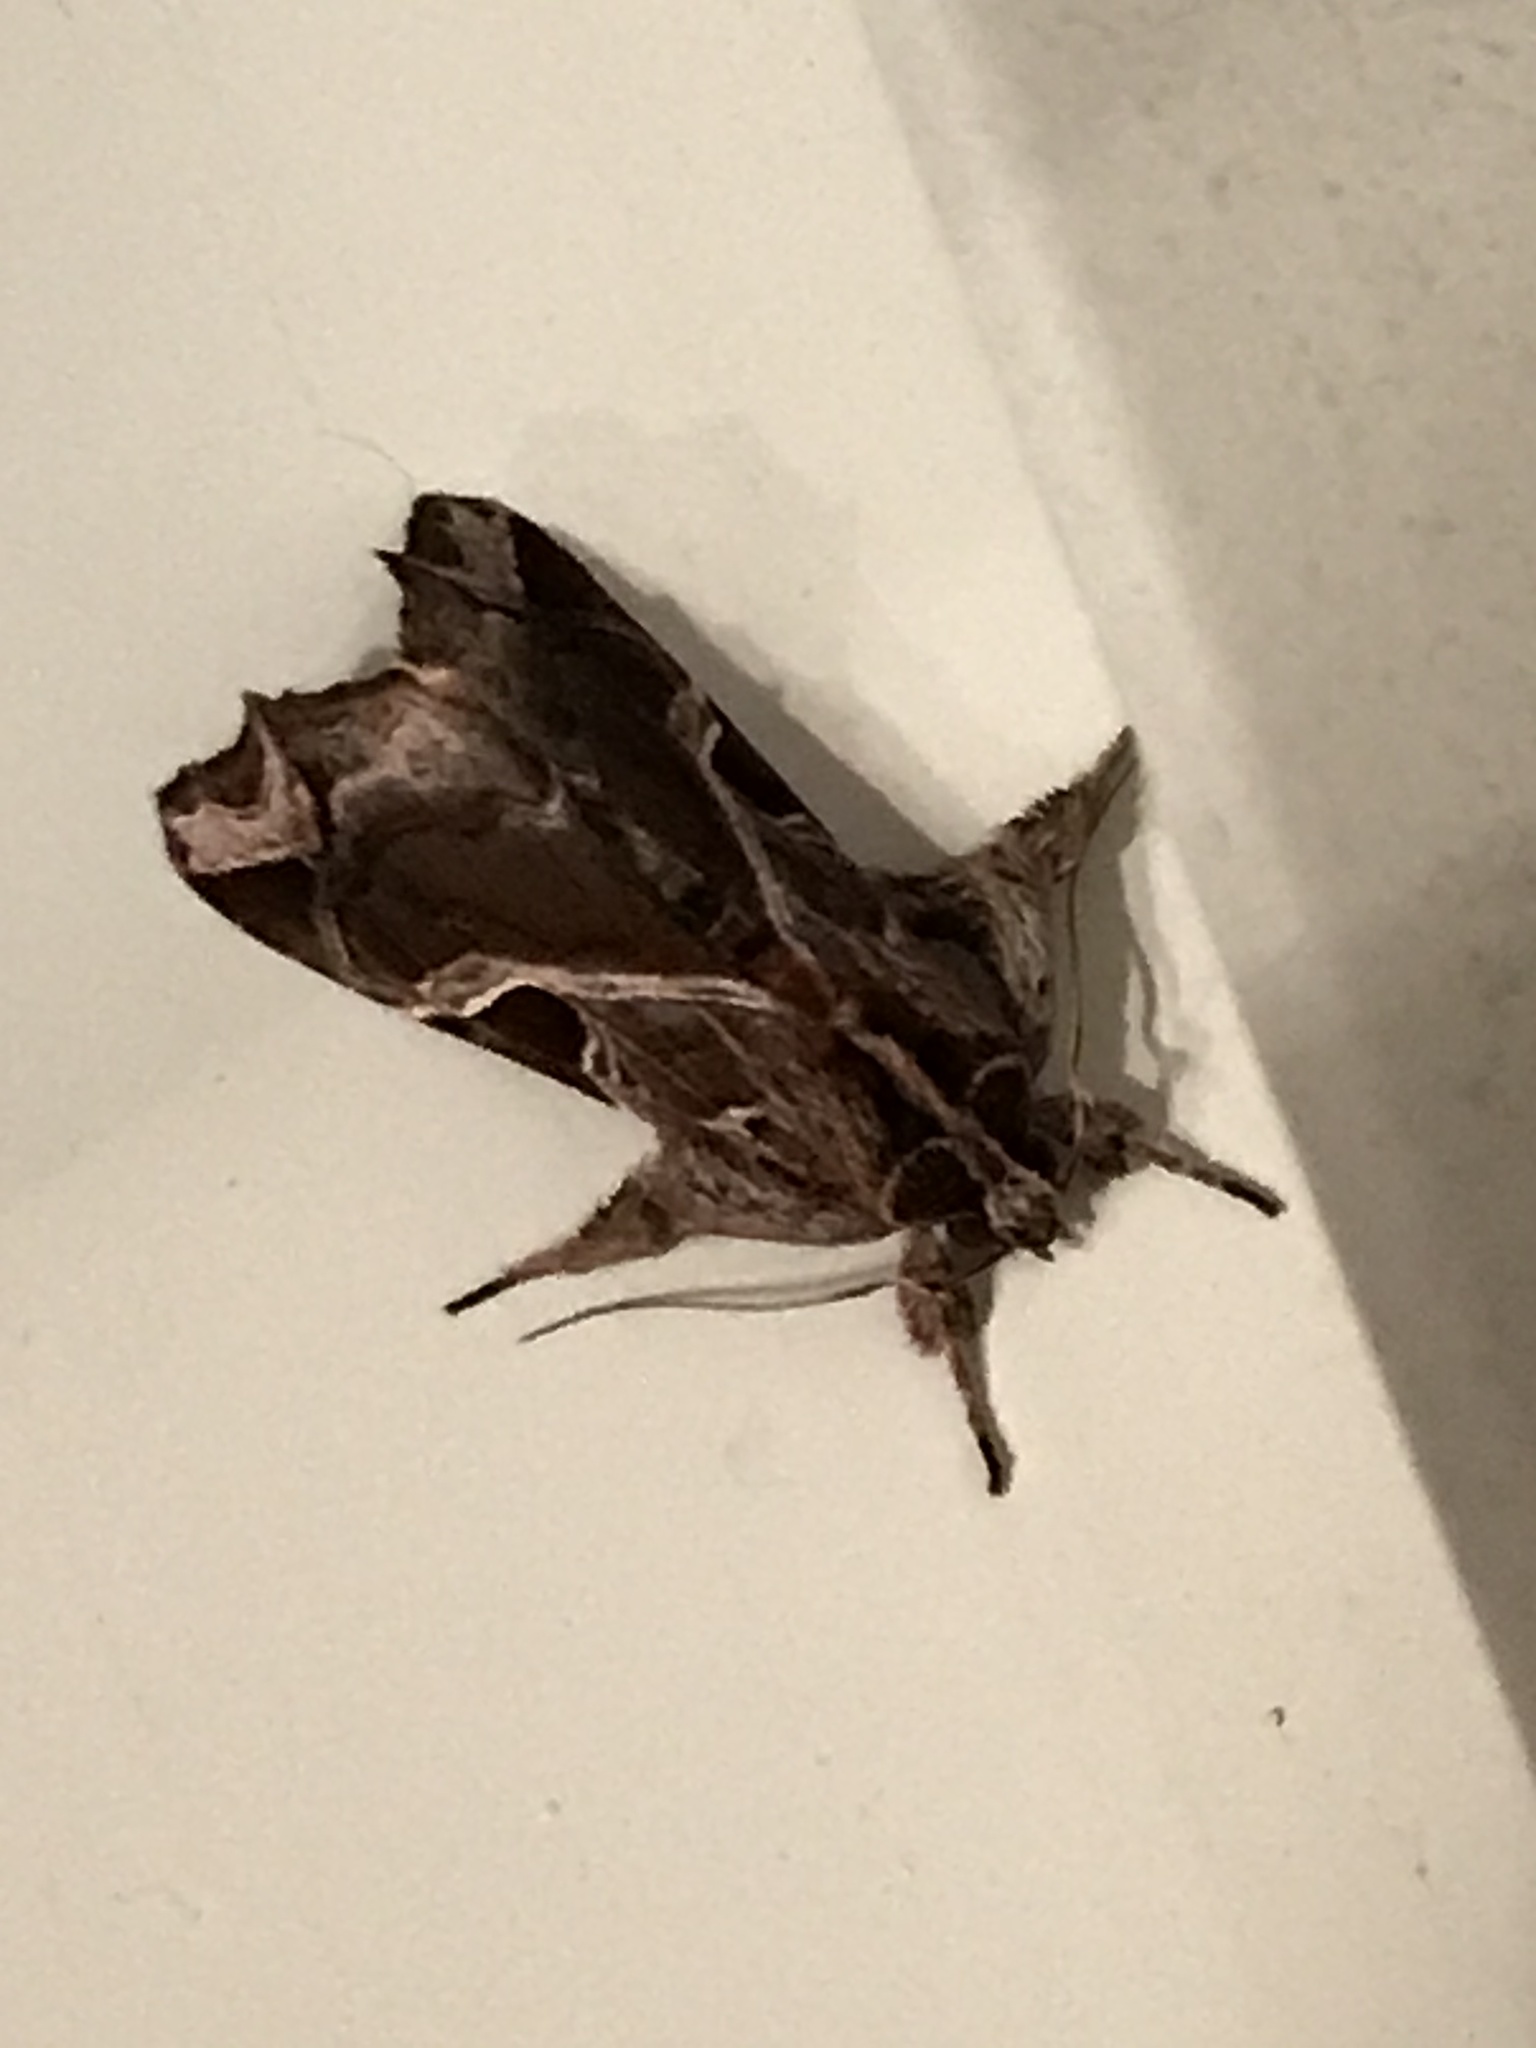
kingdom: Animalia
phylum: Arthropoda
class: Insecta
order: Lepidoptera
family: Noctuidae
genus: Callopistria
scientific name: Callopistria floridensis
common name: Florida fern moth
